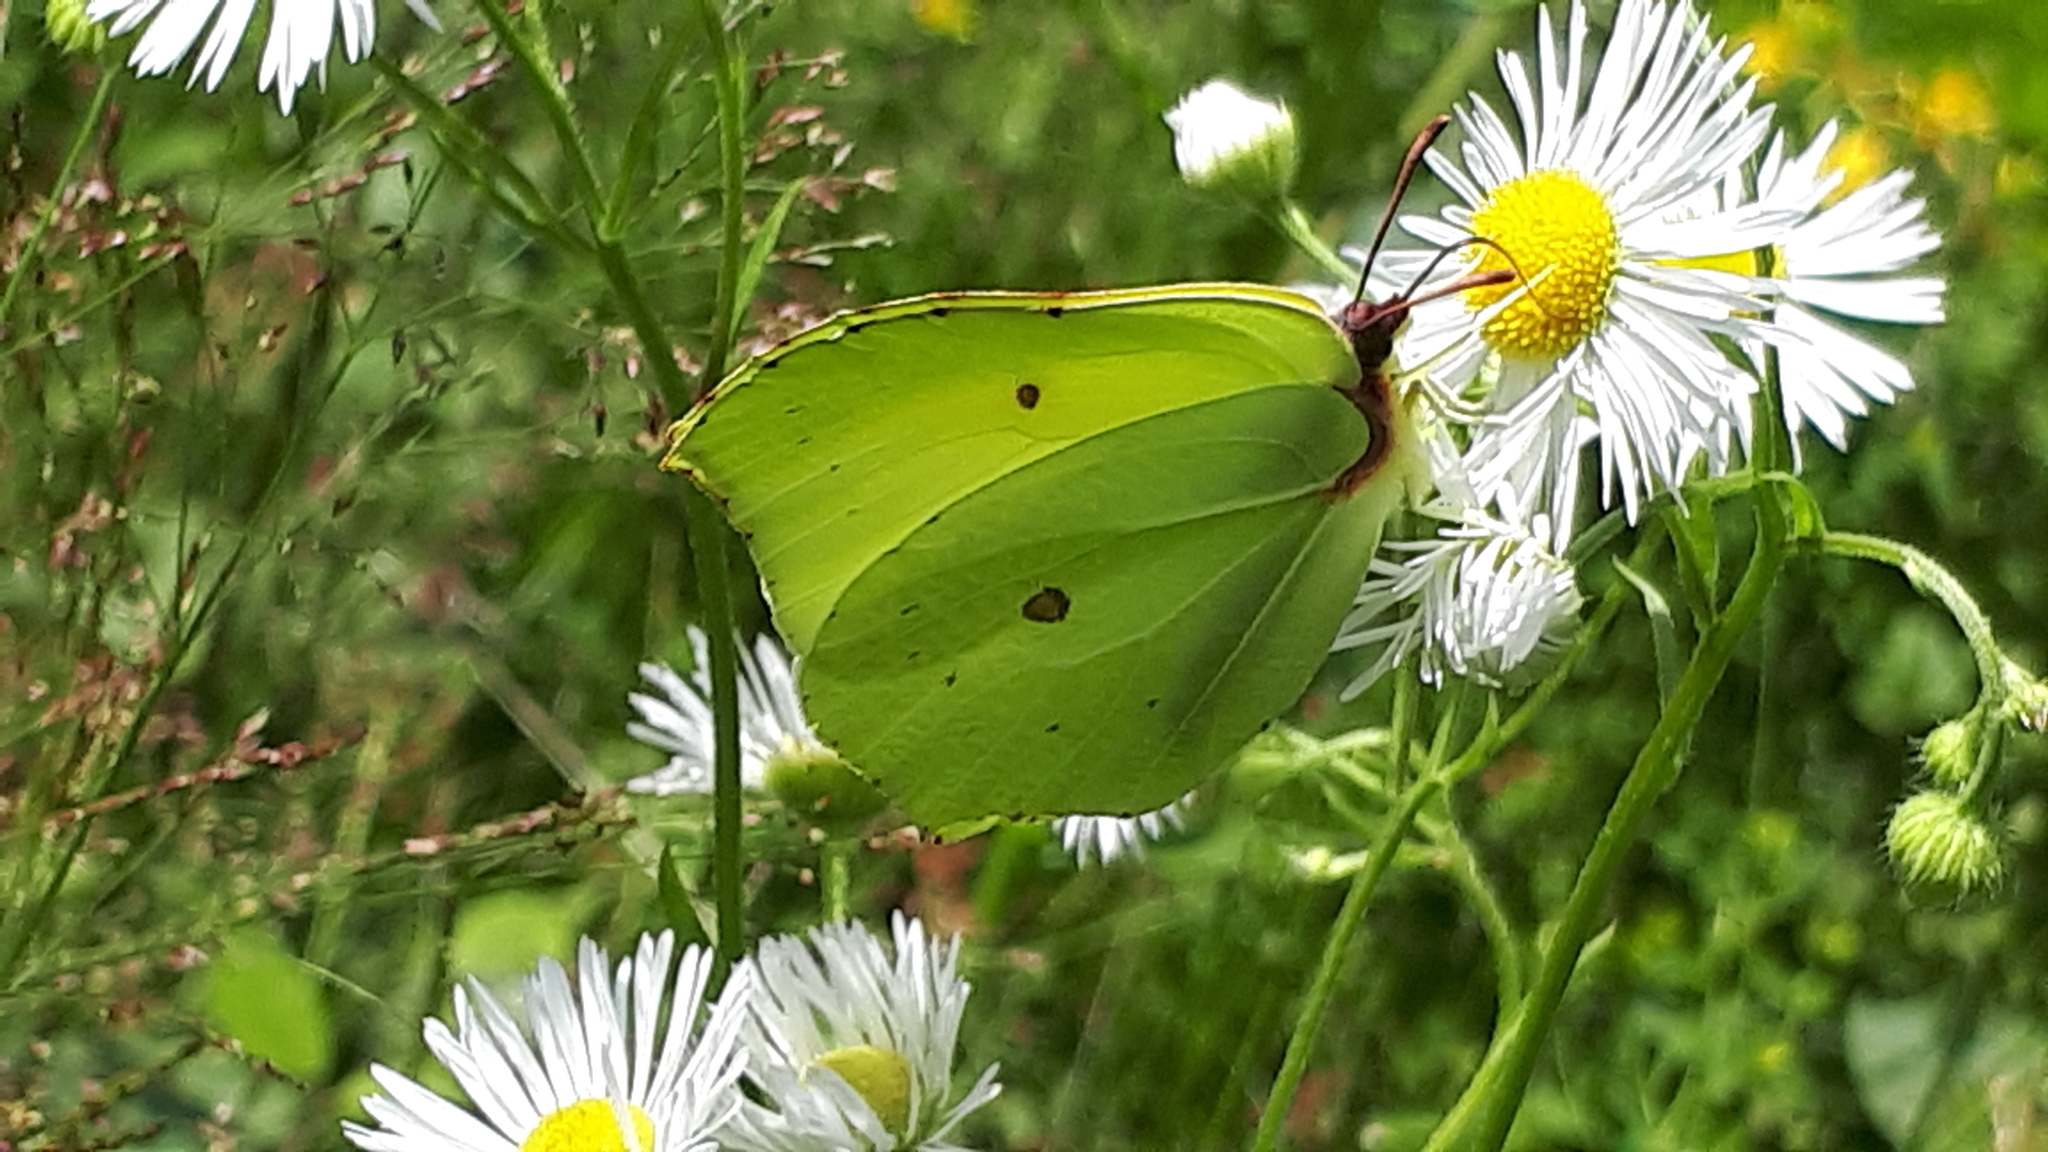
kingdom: Animalia
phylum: Arthropoda
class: Insecta
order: Lepidoptera
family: Pieridae
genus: Gonepteryx
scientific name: Gonepteryx rhamni
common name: Brimstone
